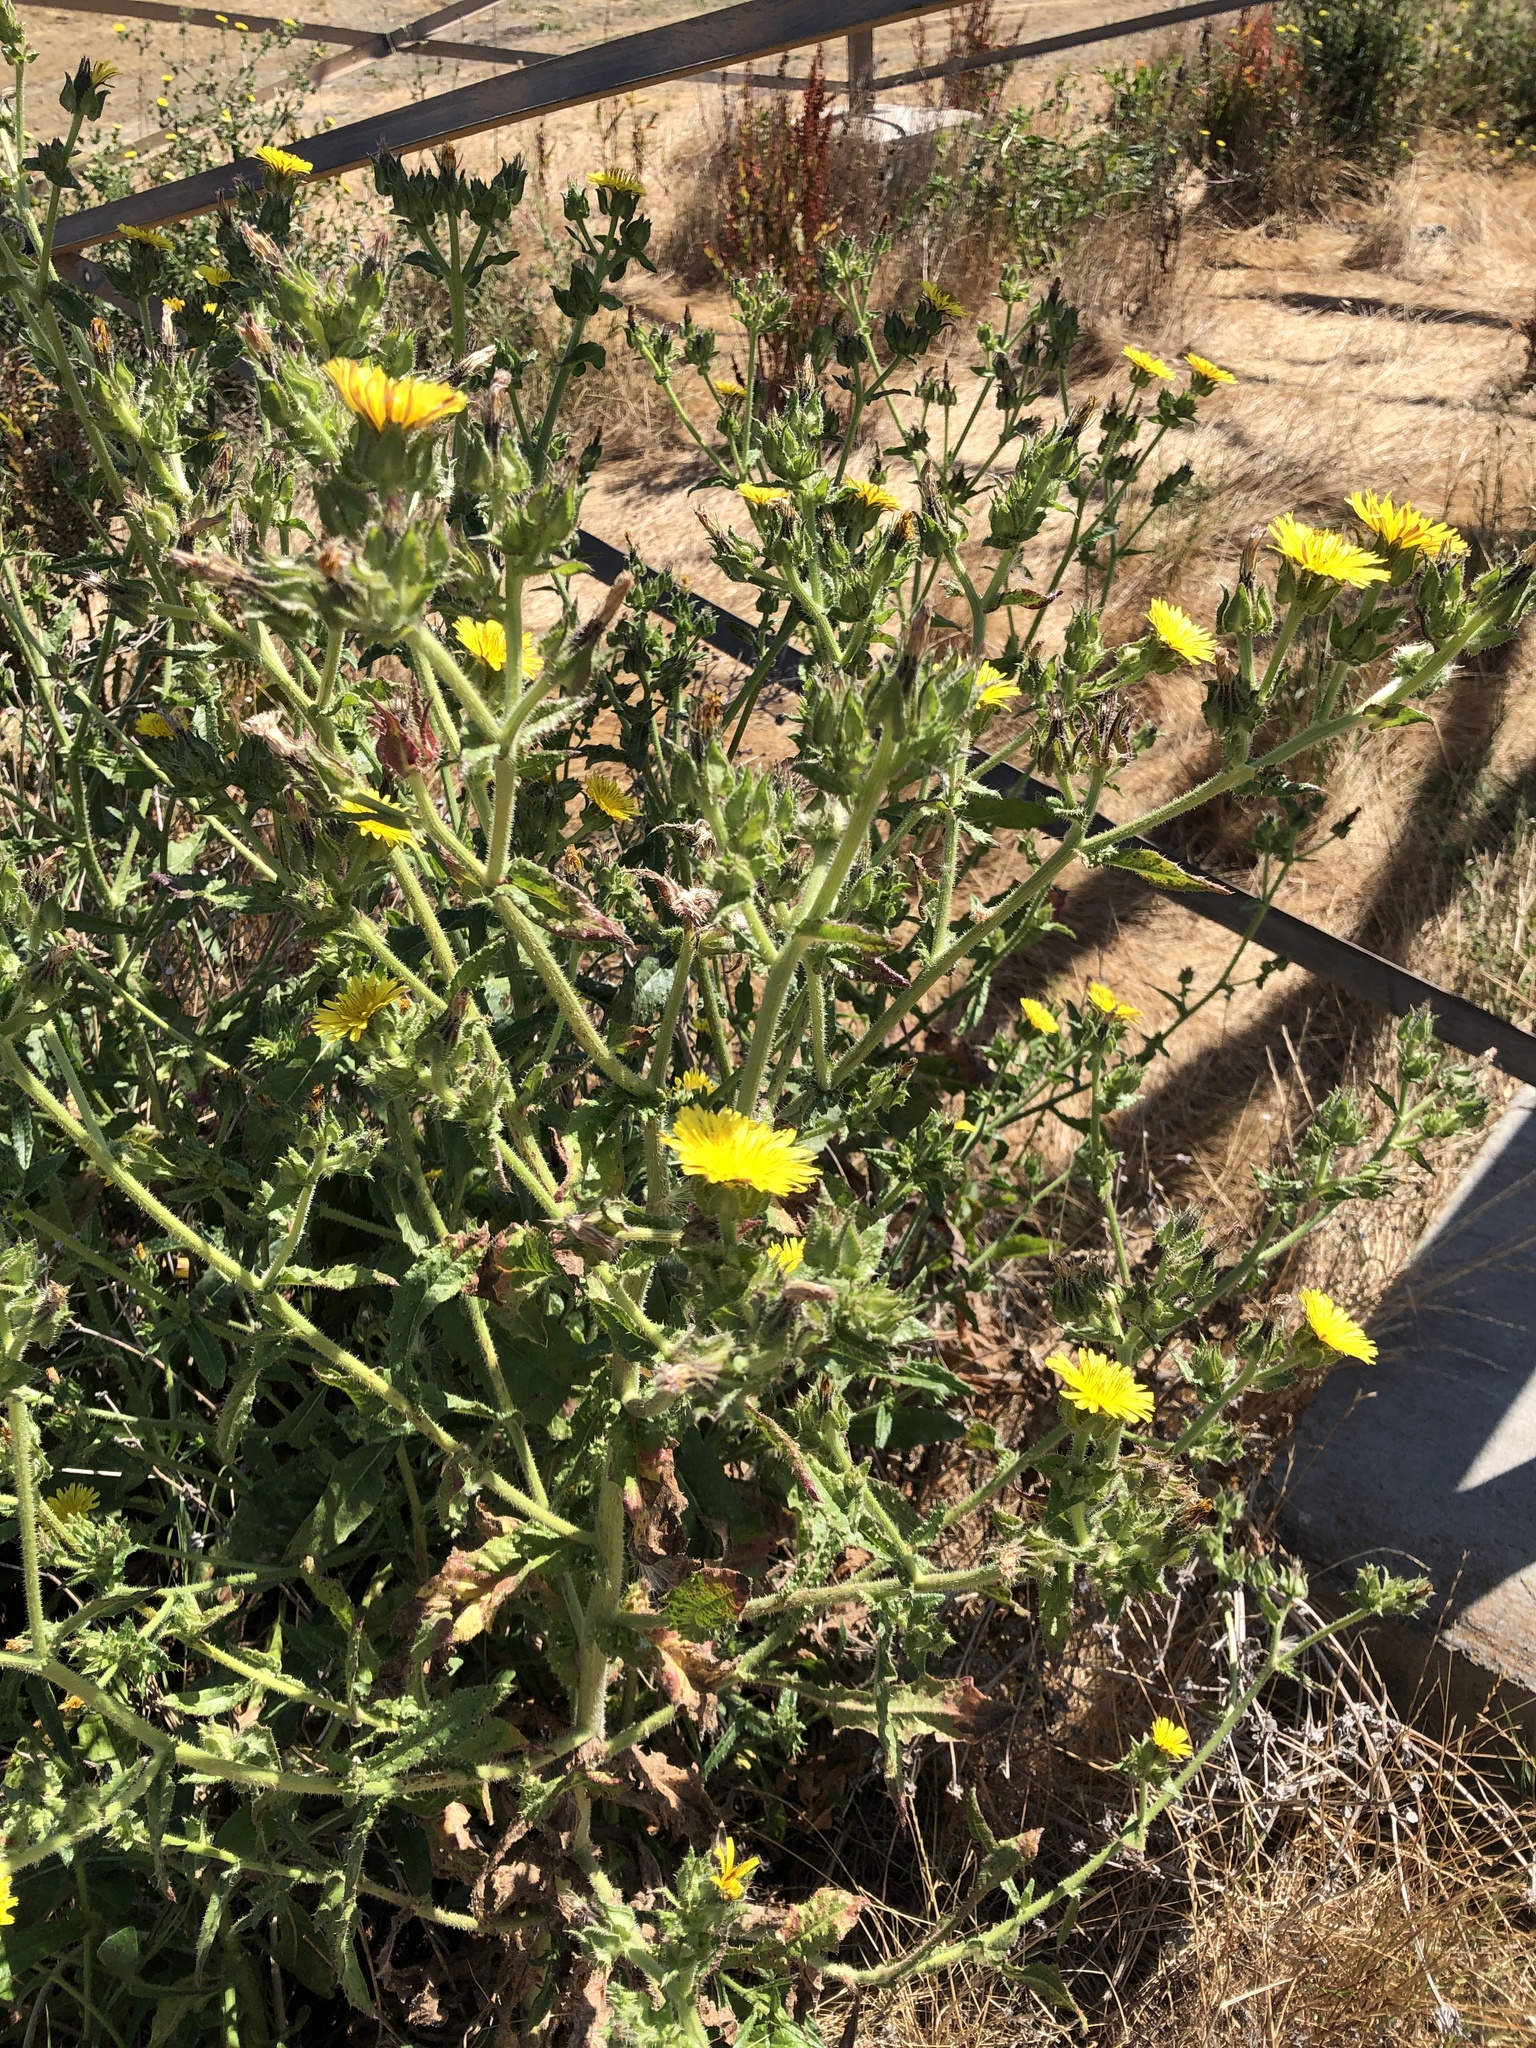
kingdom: Plantae
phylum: Tracheophyta
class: Magnoliopsida
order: Asterales
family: Asteraceae
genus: Helminthotheca
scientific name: Helminthotheca echioides
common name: Ox-tongue
